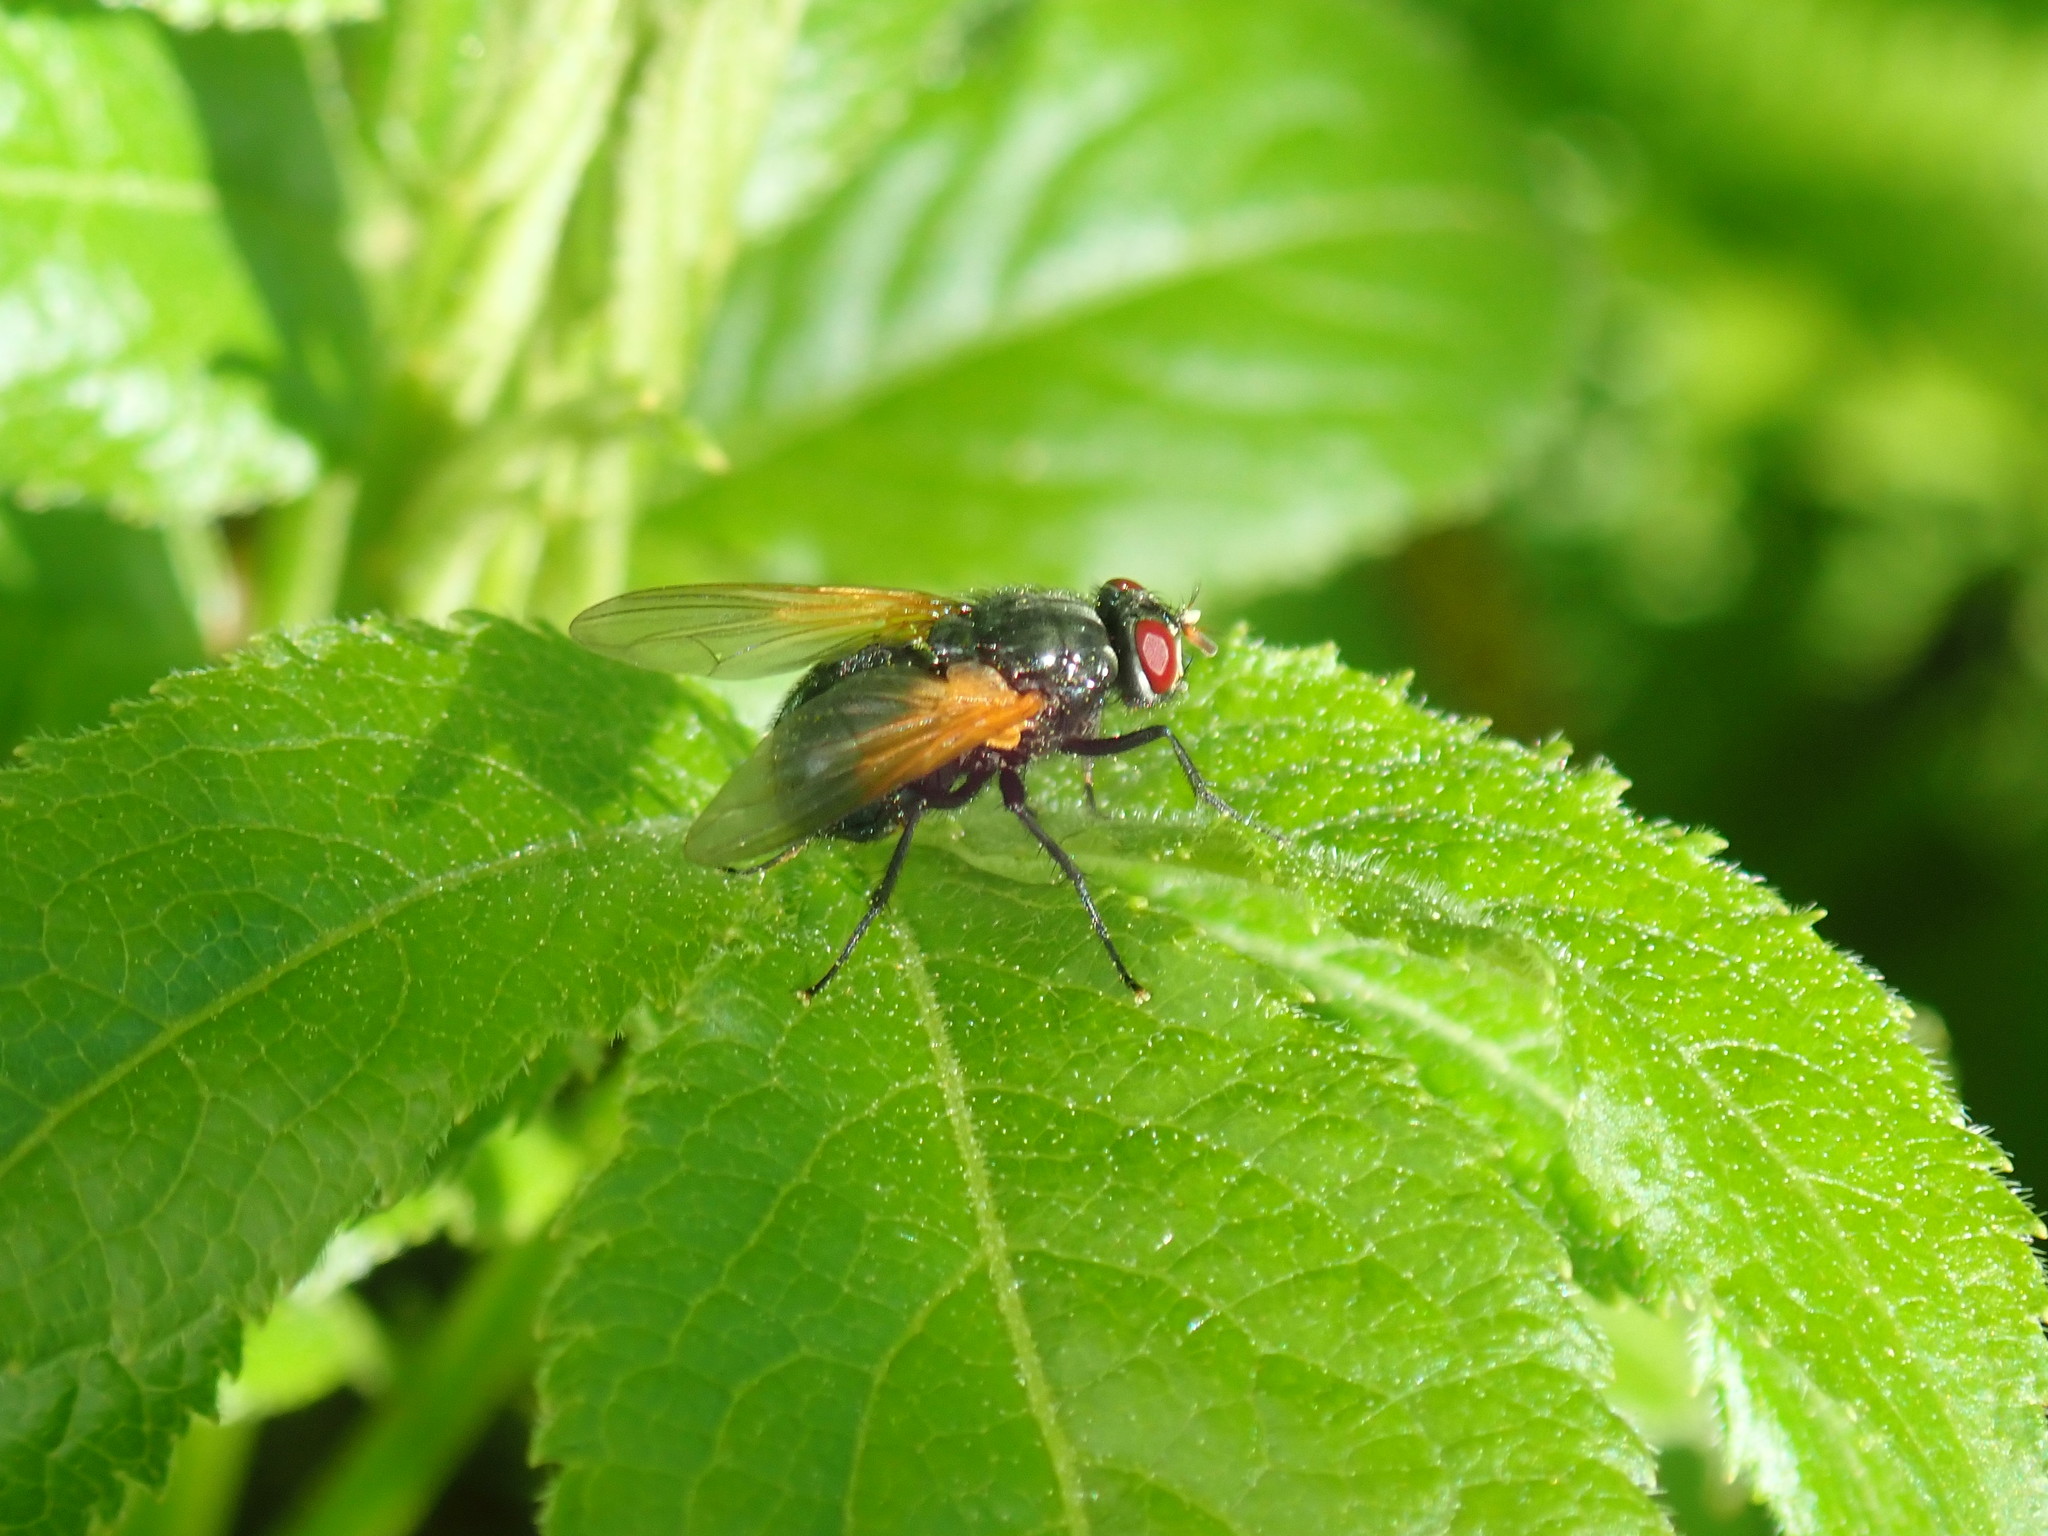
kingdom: Animalia
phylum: Arthropoda
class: Insecta
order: Diptera
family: Muscidae
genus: Mesembrina
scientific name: Mesembrina latreillii
